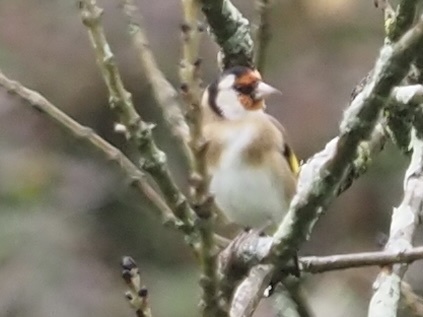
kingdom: Animalia
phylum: Chordata
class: Aves
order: Passeriformes
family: Fringillidae
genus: Carduelis
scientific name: Carduelis carduelis
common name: European goldfinch
